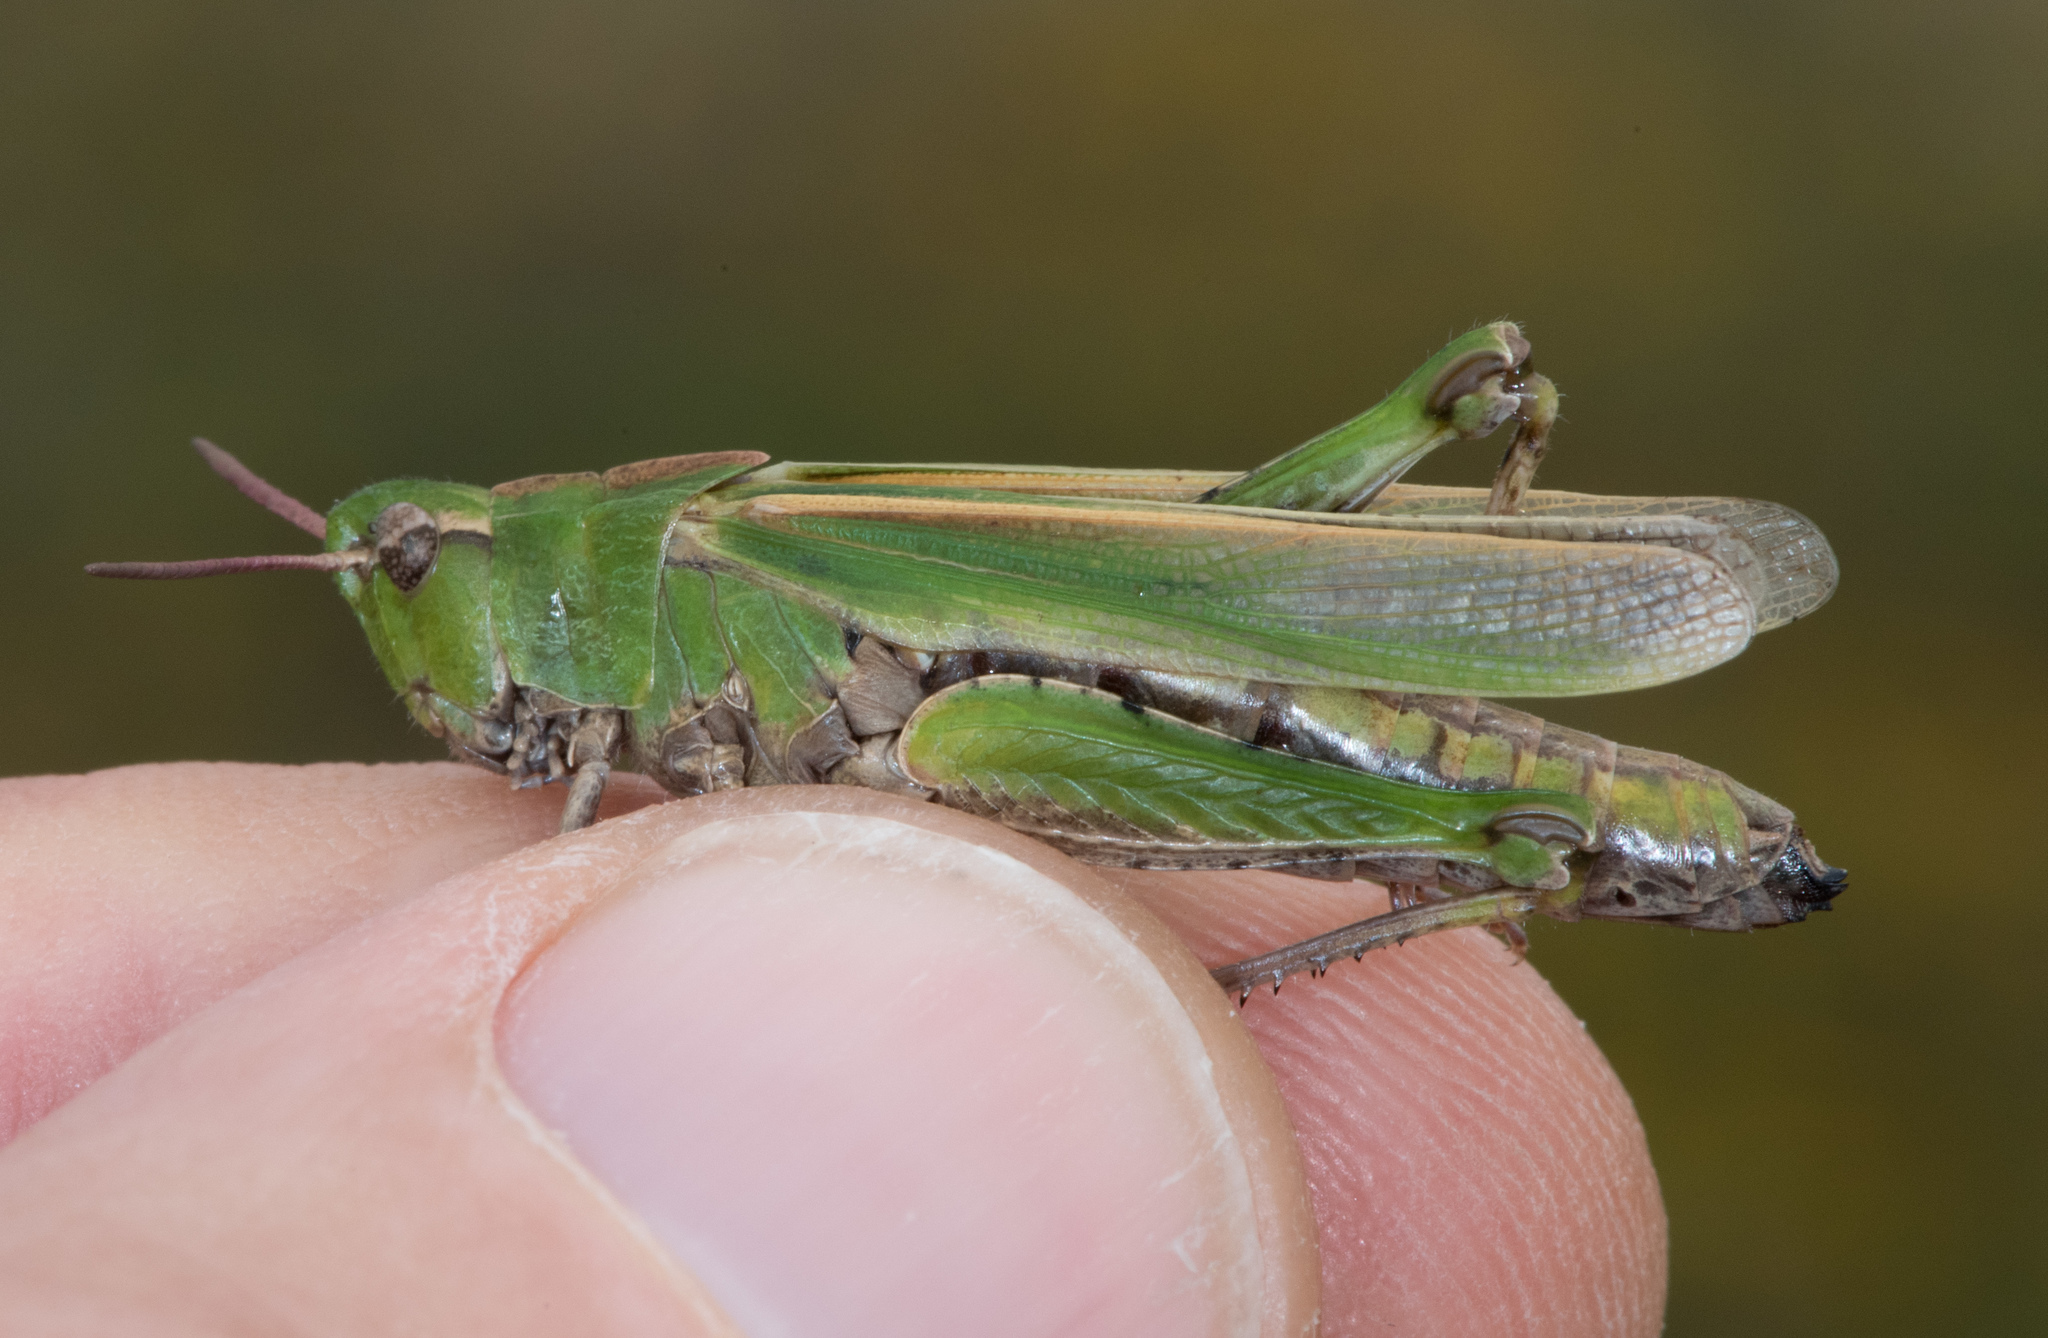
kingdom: Animalia
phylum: Arthropoda
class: Insecta
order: Orthoptera
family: Acrididae
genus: Chimarocephala
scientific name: Chimarocephala elongata
